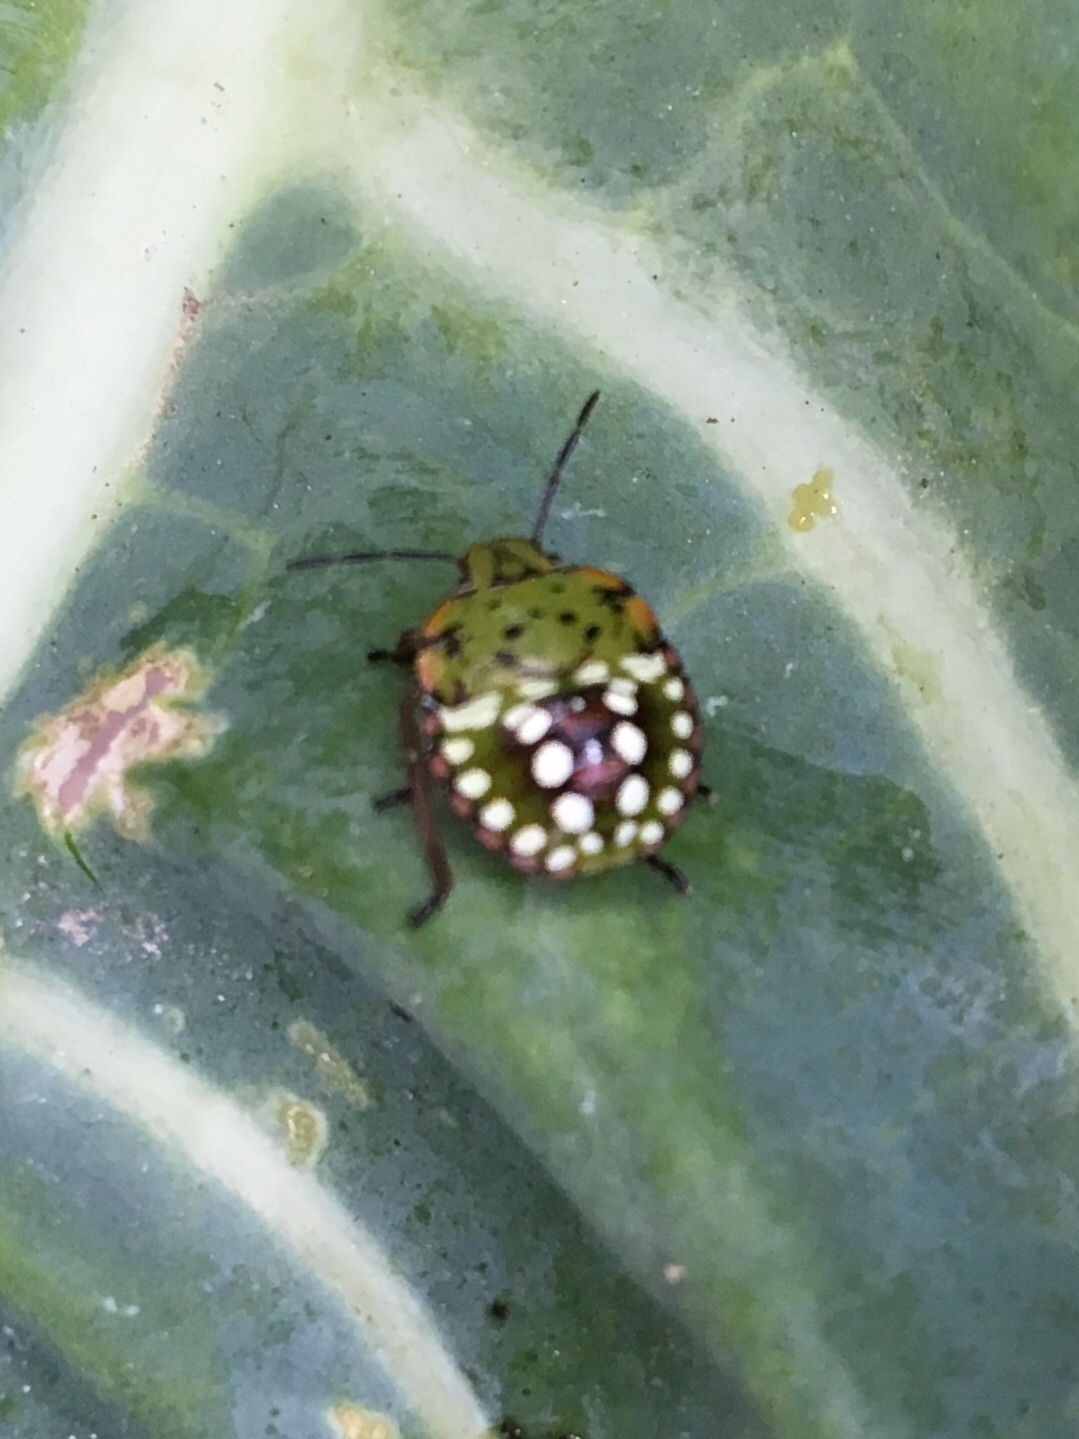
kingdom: Animalia
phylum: Arthropoda
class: Insecta
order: Hemiptera
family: Pentatomidae
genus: Nezara
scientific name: Nezara viridula
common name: Southern green stink bug
